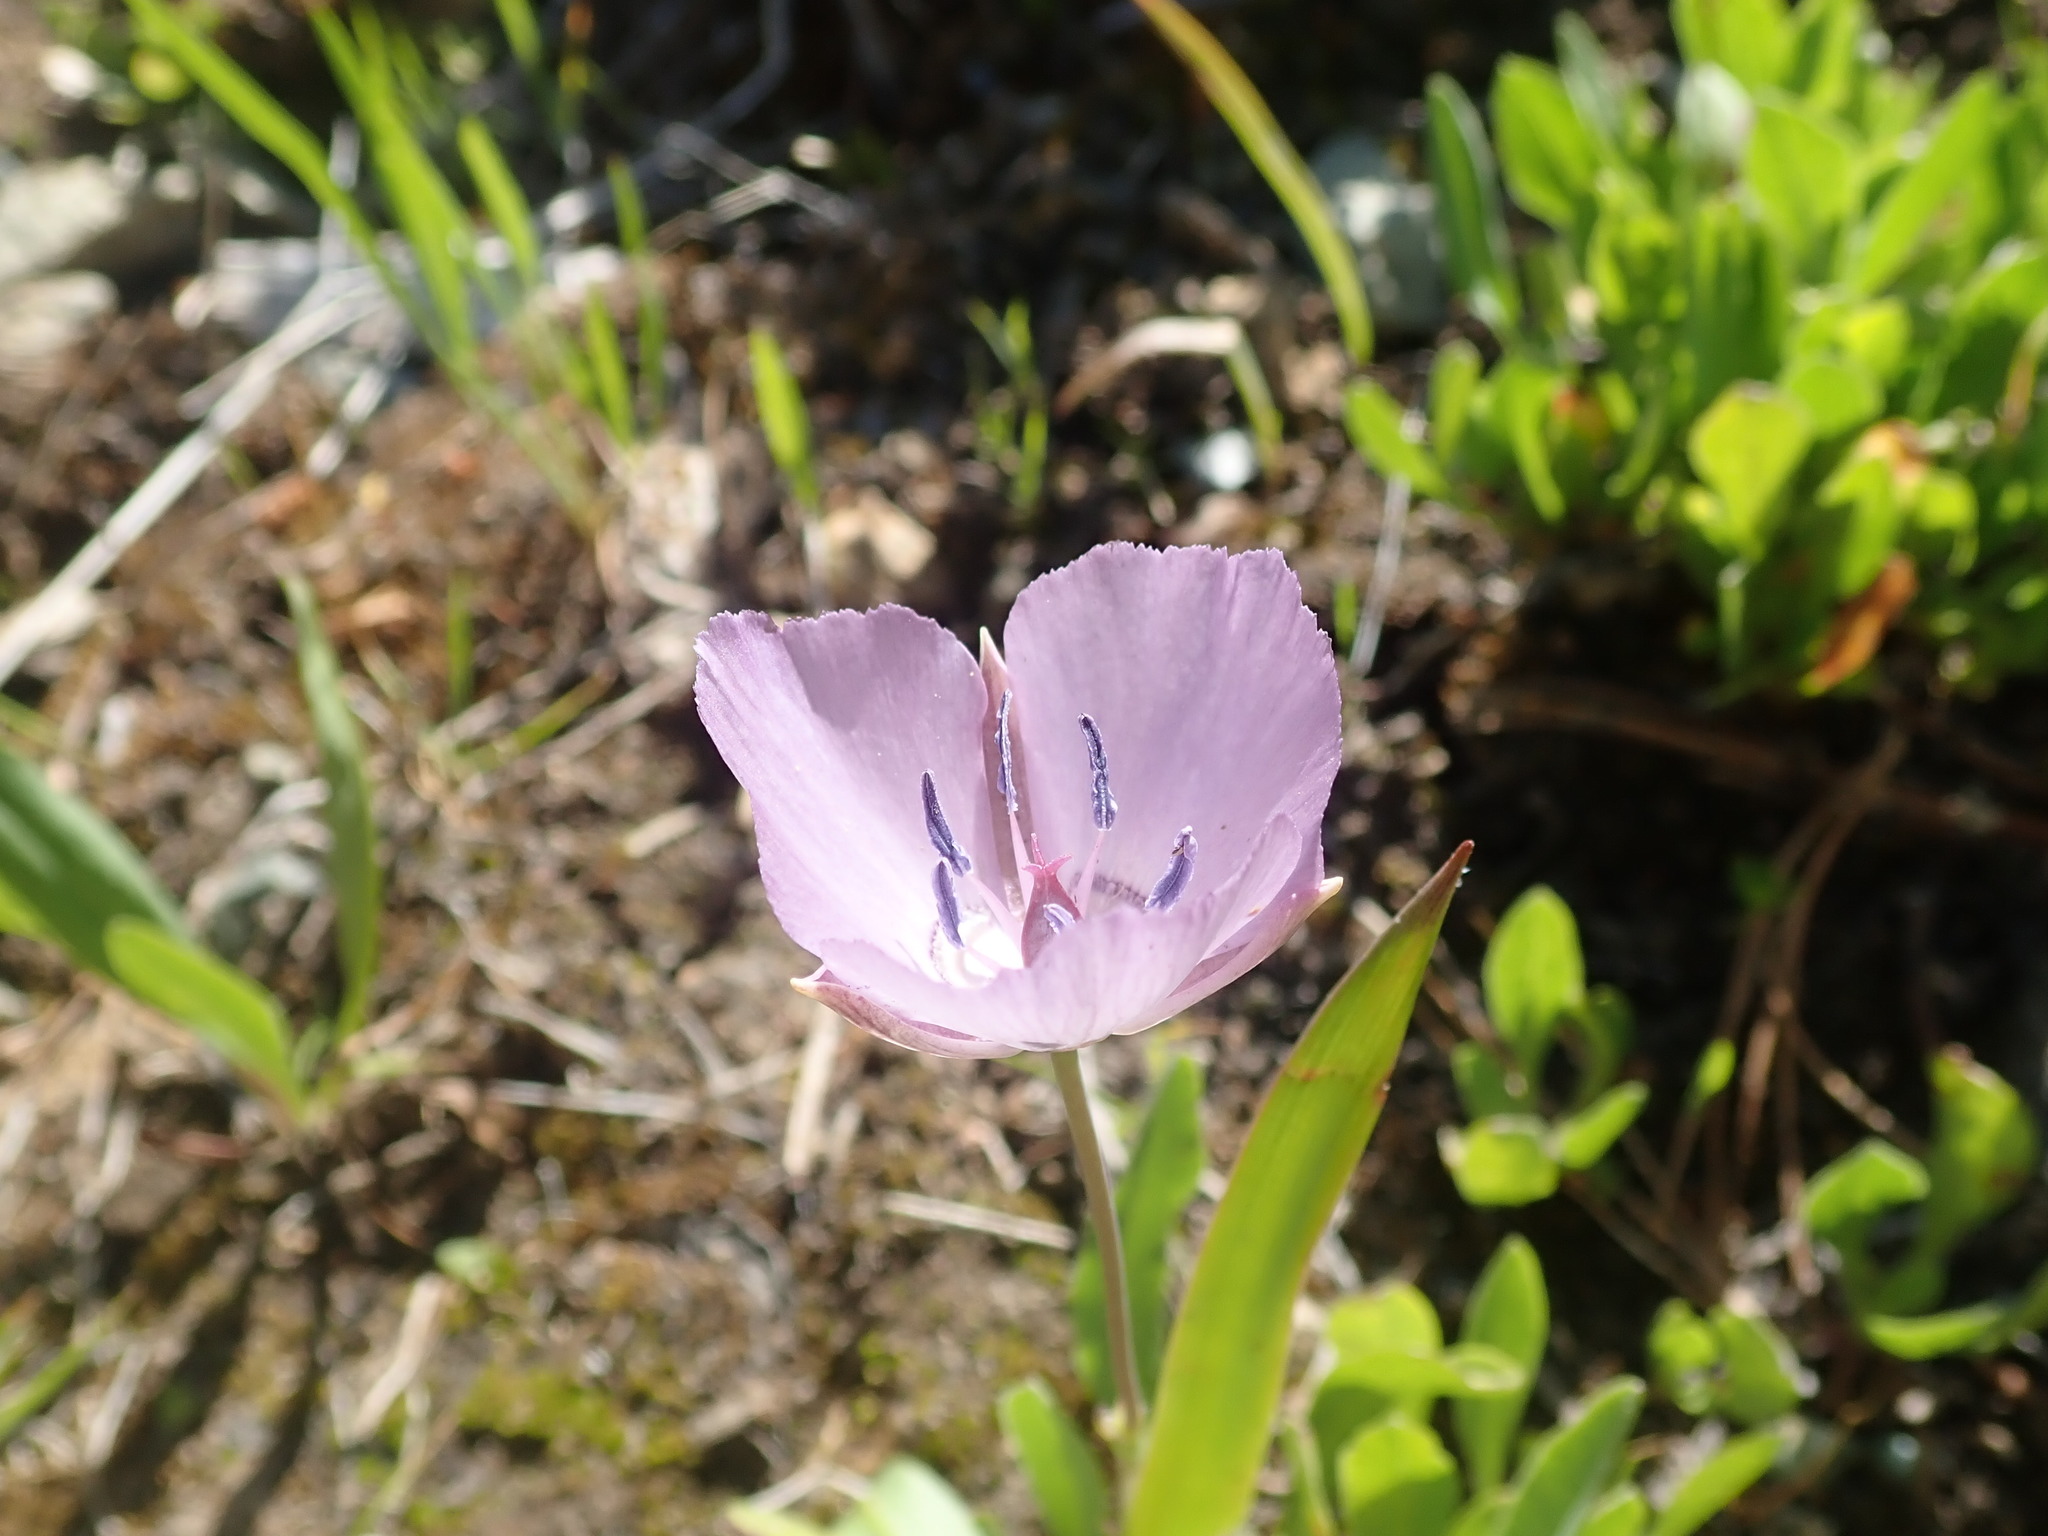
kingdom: Plantae
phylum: Tracheophyta
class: Liliopsida
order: Liliales
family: Liliaceae
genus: Calochortus
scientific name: Calochortus nudus
